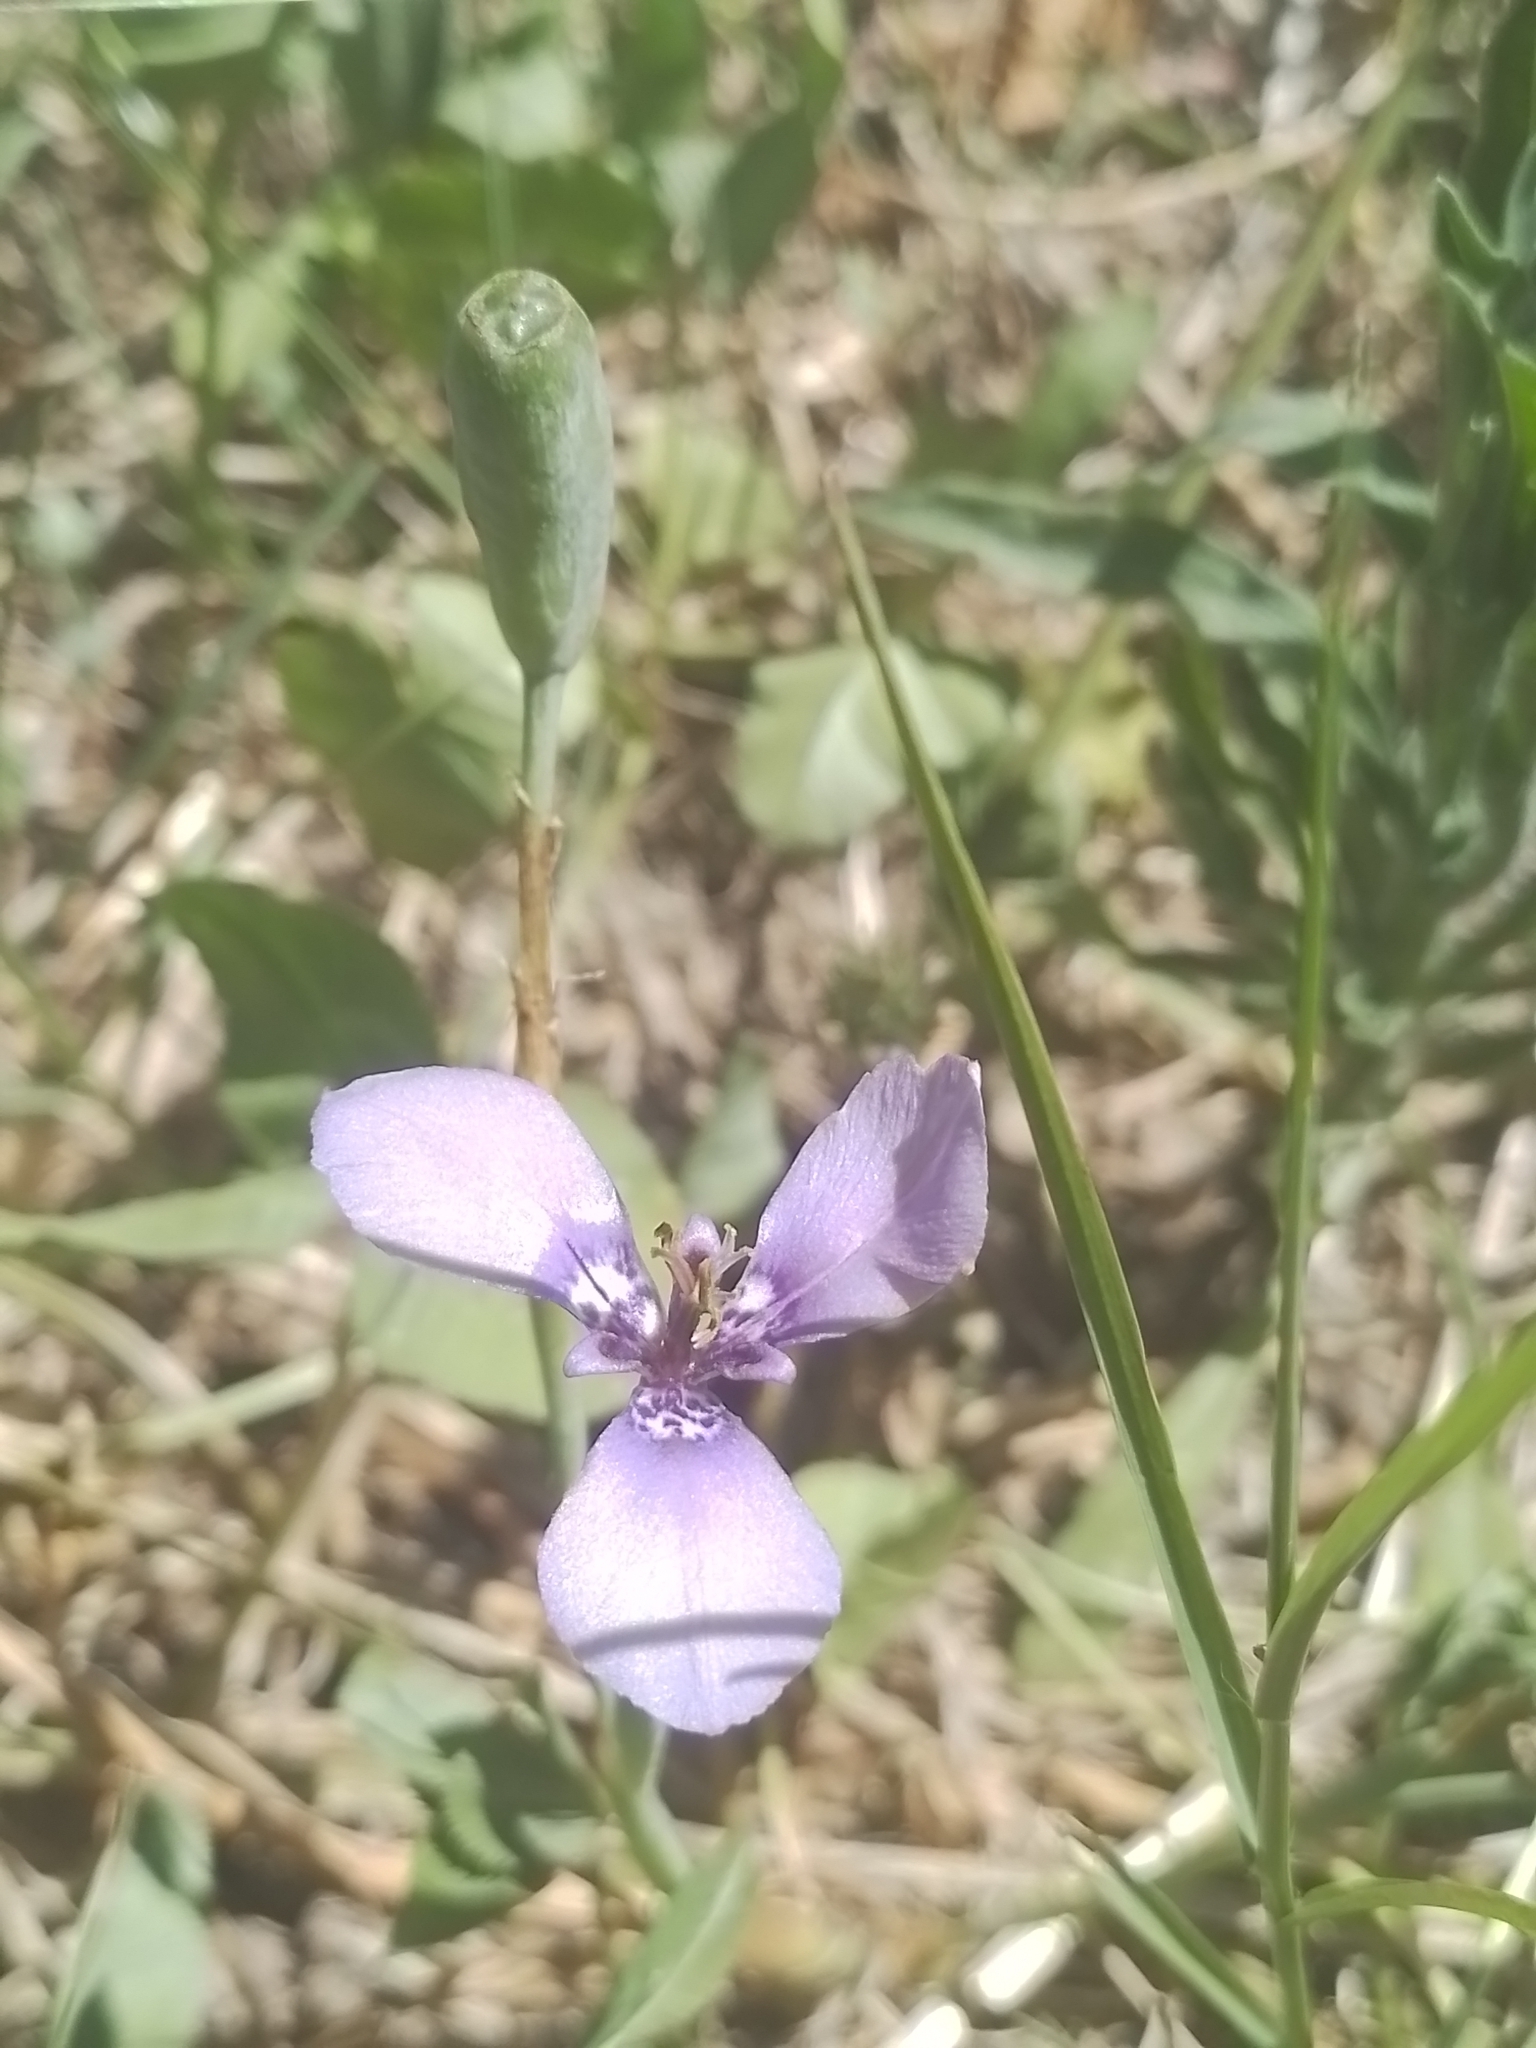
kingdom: Plantae
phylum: Tracheophyta
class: Liliopsida
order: Asparagales
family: Iridaceae
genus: Herbertia
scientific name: Herbertia lahue
